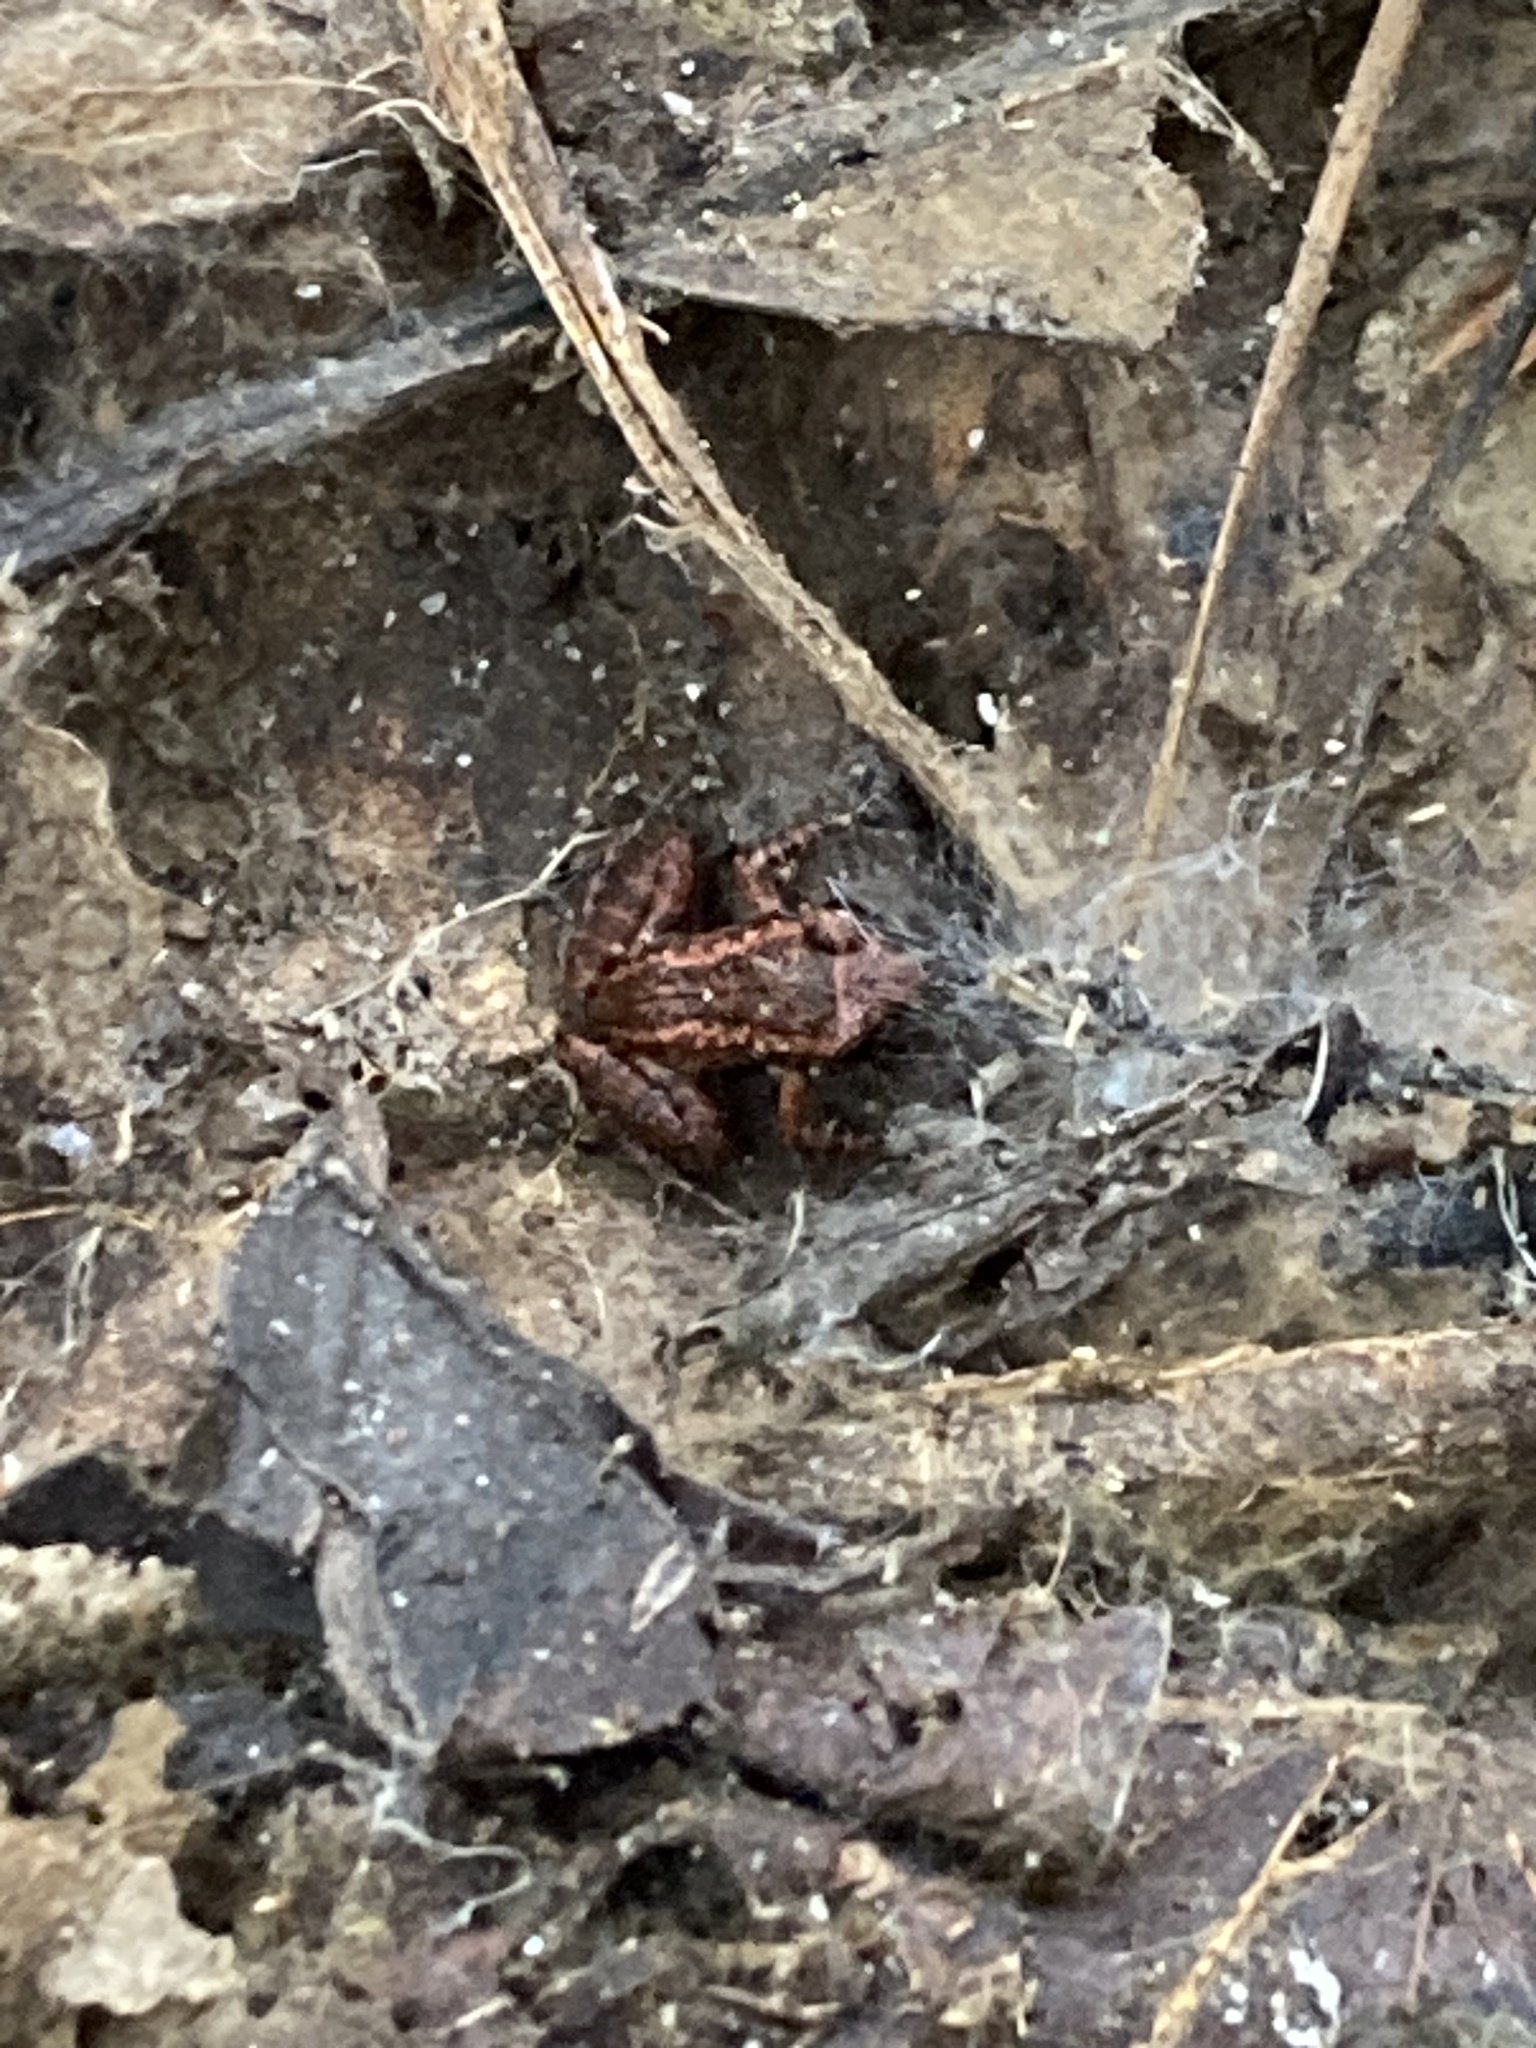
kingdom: Animalia
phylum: Chordata
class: Amphibia
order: Anura
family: Eleutherodactylidae
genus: Eleutherodactylus
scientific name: Eleutherodactylus planirostris
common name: Greenhouse frog
